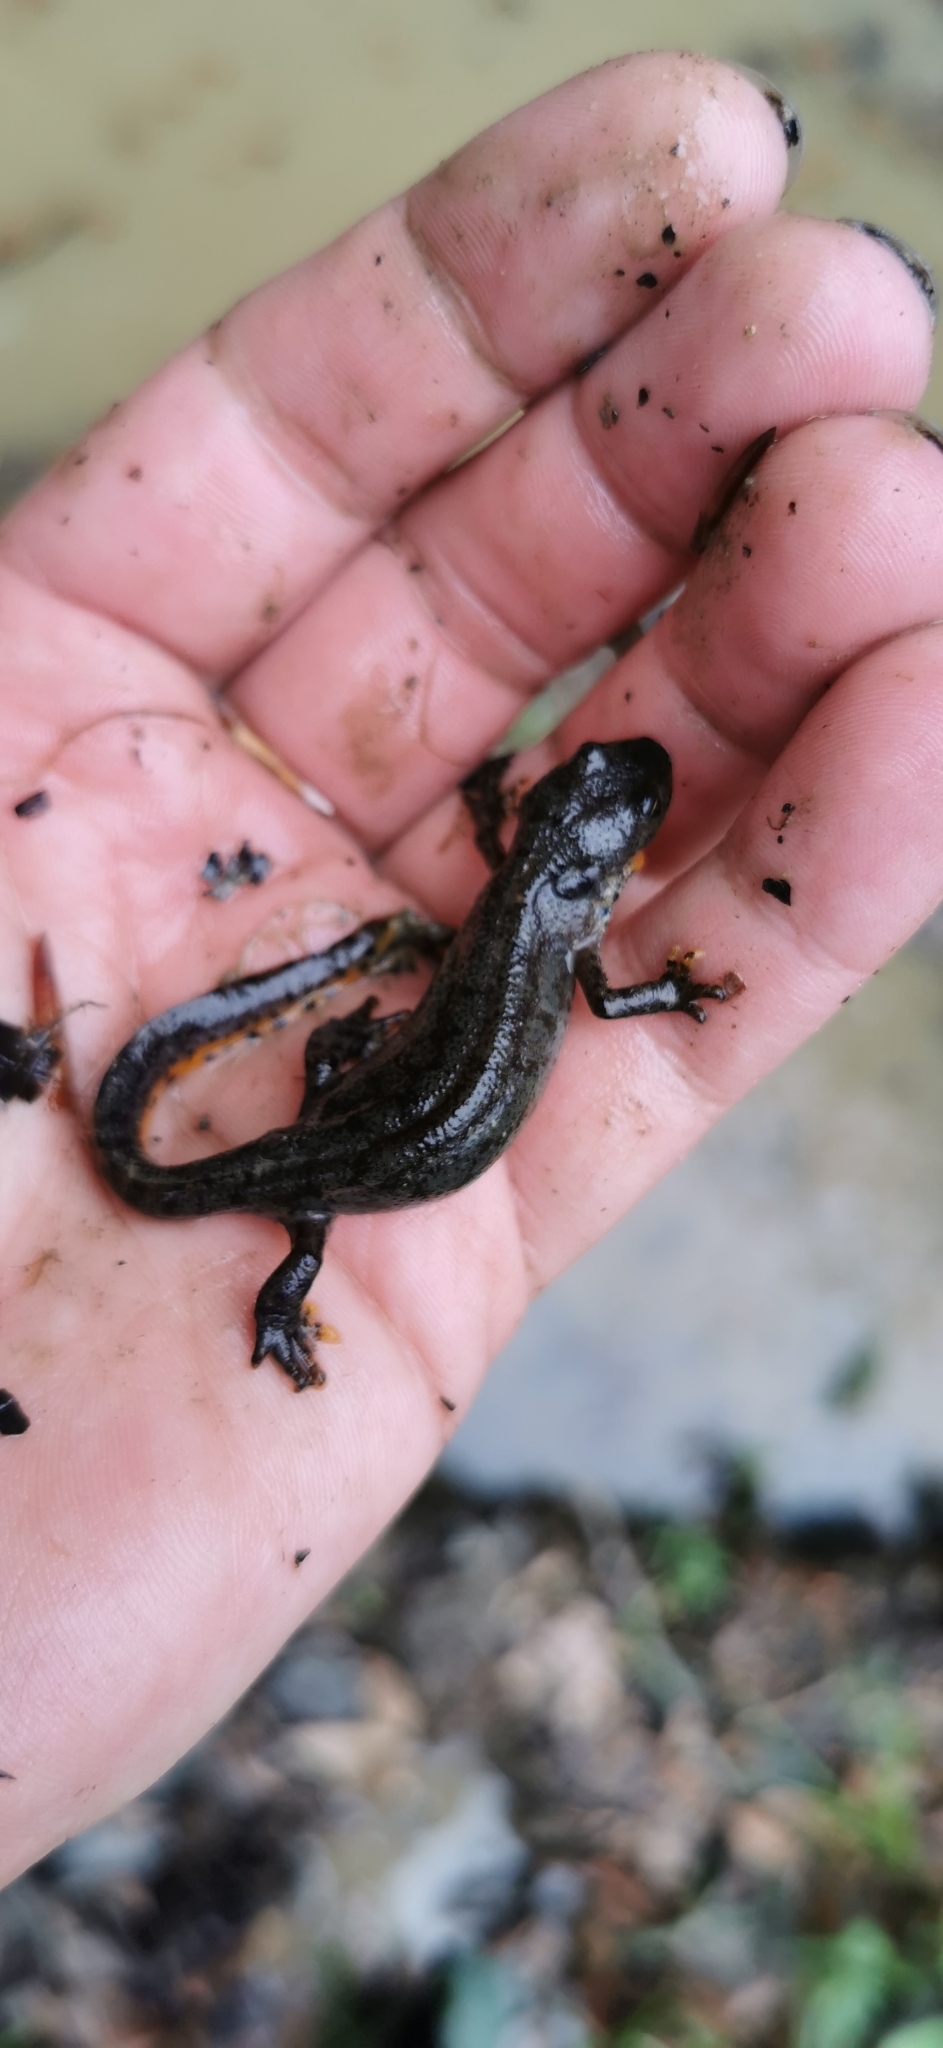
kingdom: Animalia
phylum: Chordata
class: Amphibia
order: Caudata
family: Salamandridae
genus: Ichthyosaura
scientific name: Ichthyosaura alpestris
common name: Alpine newt
